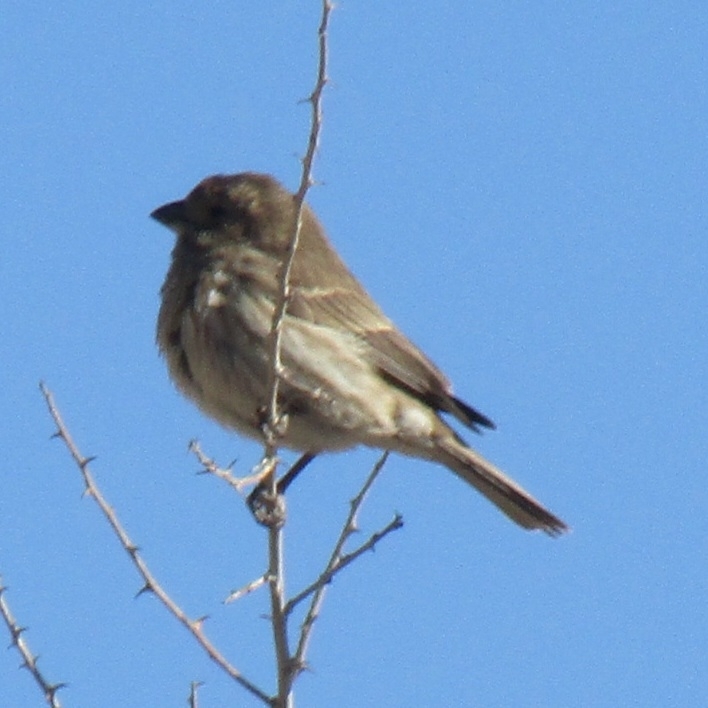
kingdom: Animalia
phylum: Chordata
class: Aves
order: Passeriformes
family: Fringillidae
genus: Haemorhous
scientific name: Haemorhous mexicanus
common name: House finch
